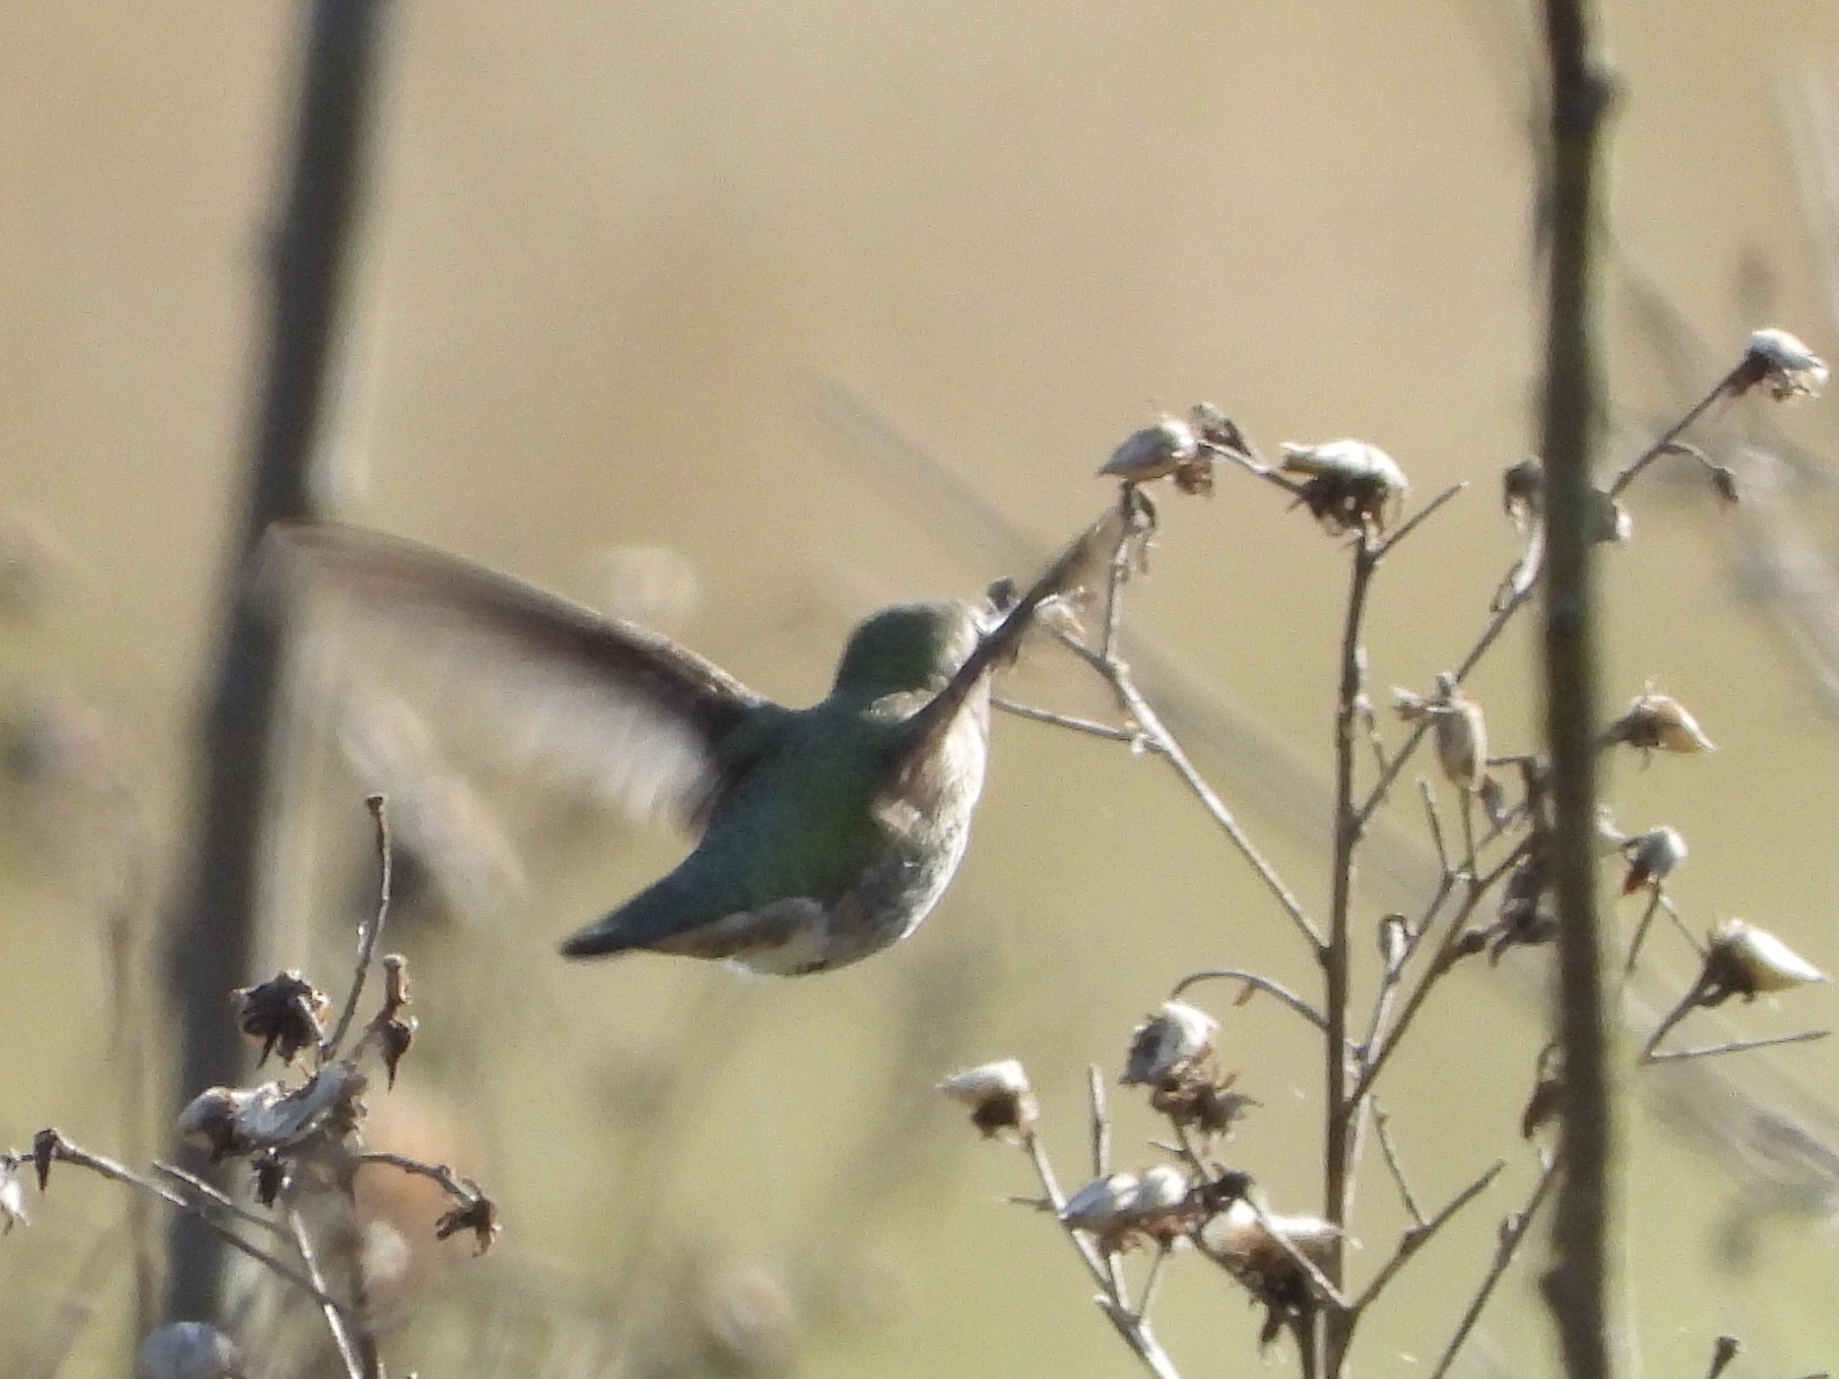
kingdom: Animalia
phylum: Chordata
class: Aves
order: Apodiformes
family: Trochilidae
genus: Calypte
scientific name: Calypte anna
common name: Anna's hummingbird
